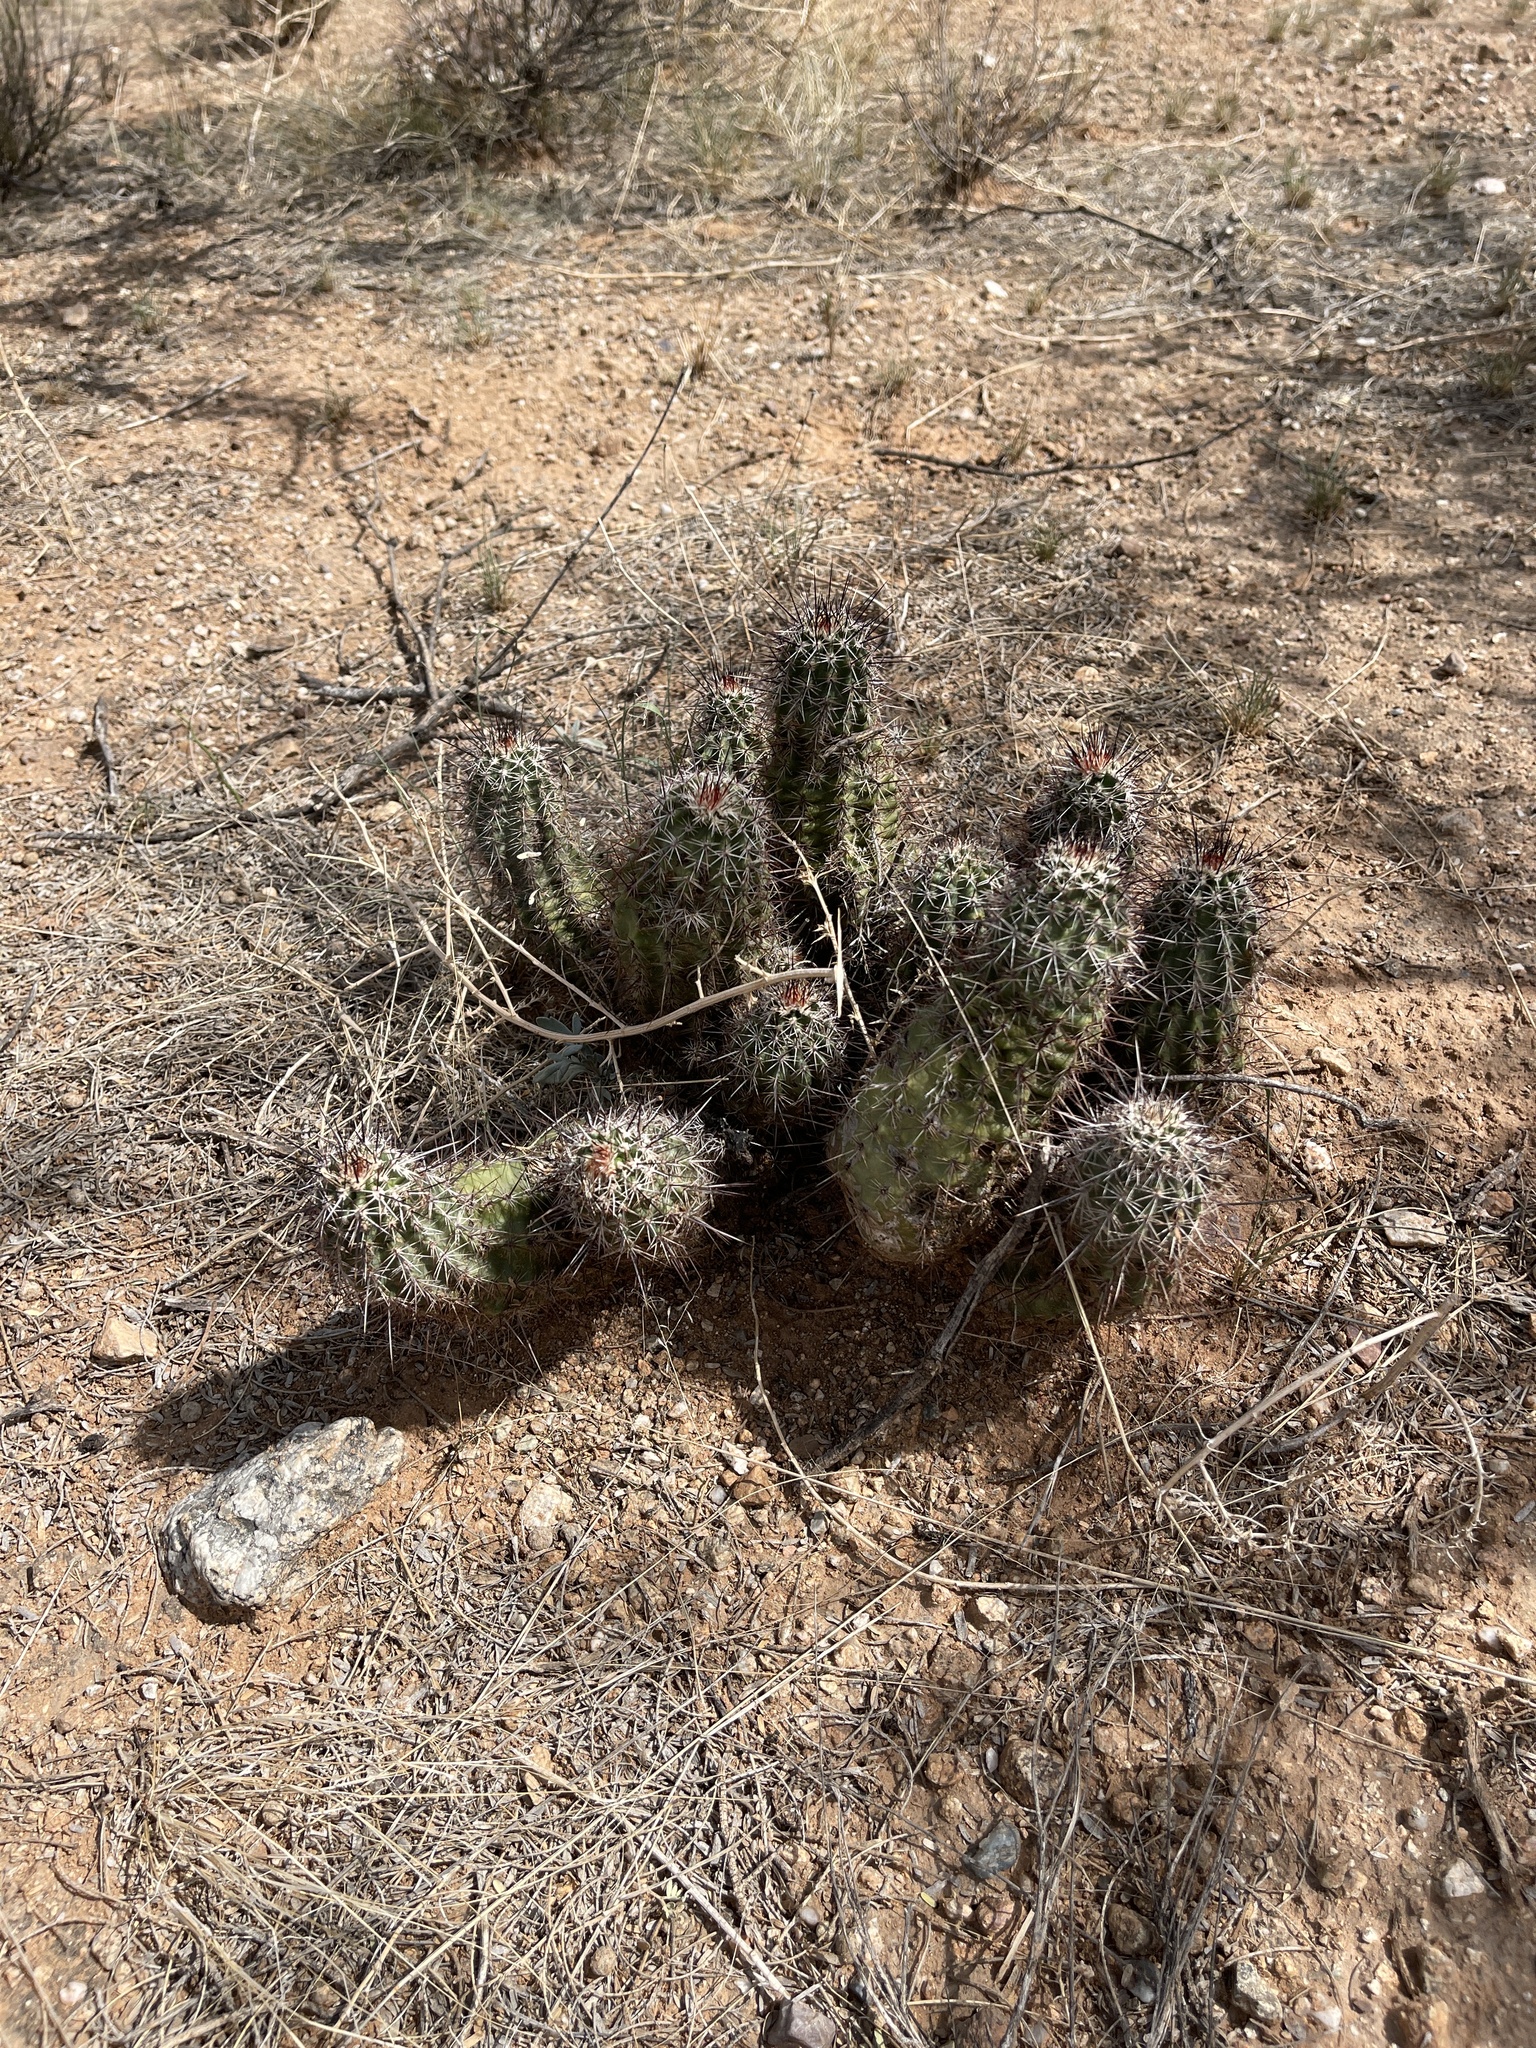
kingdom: Plantae
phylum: Tracheophyta
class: Magnoliopsida
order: Caryophyllales
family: Cactaceae
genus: Echinocereus
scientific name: Echinocereus fasciculatus
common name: Bundle hedgehog
